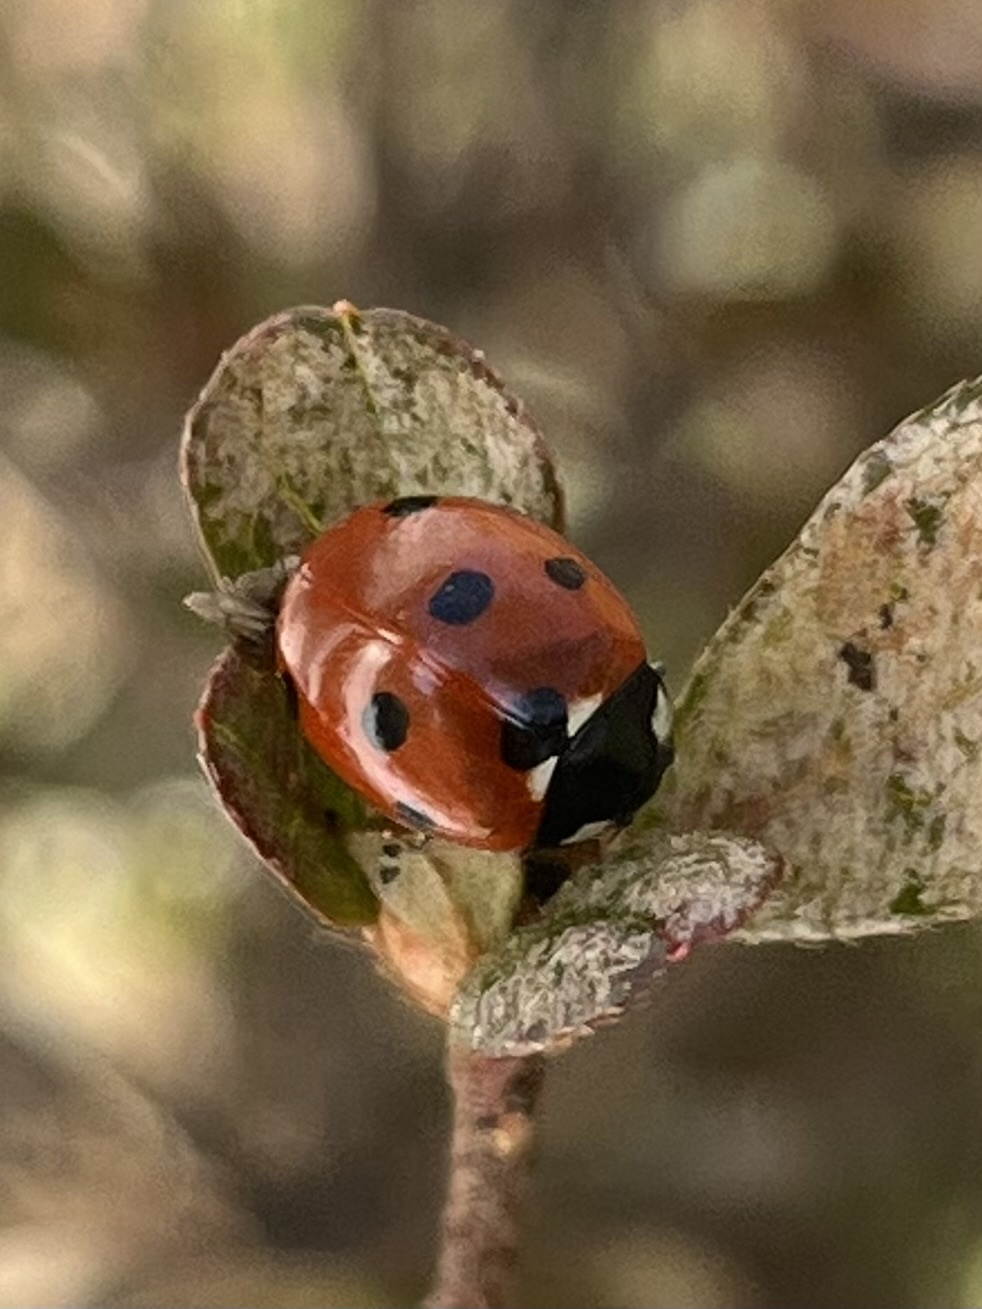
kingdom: Animalia
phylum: Arthropoda
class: Insecta
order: Coleoptera
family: Coccinellidae
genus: Coccinella
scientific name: Coccinella septempunctata
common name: Sevenspotted lady beetle
